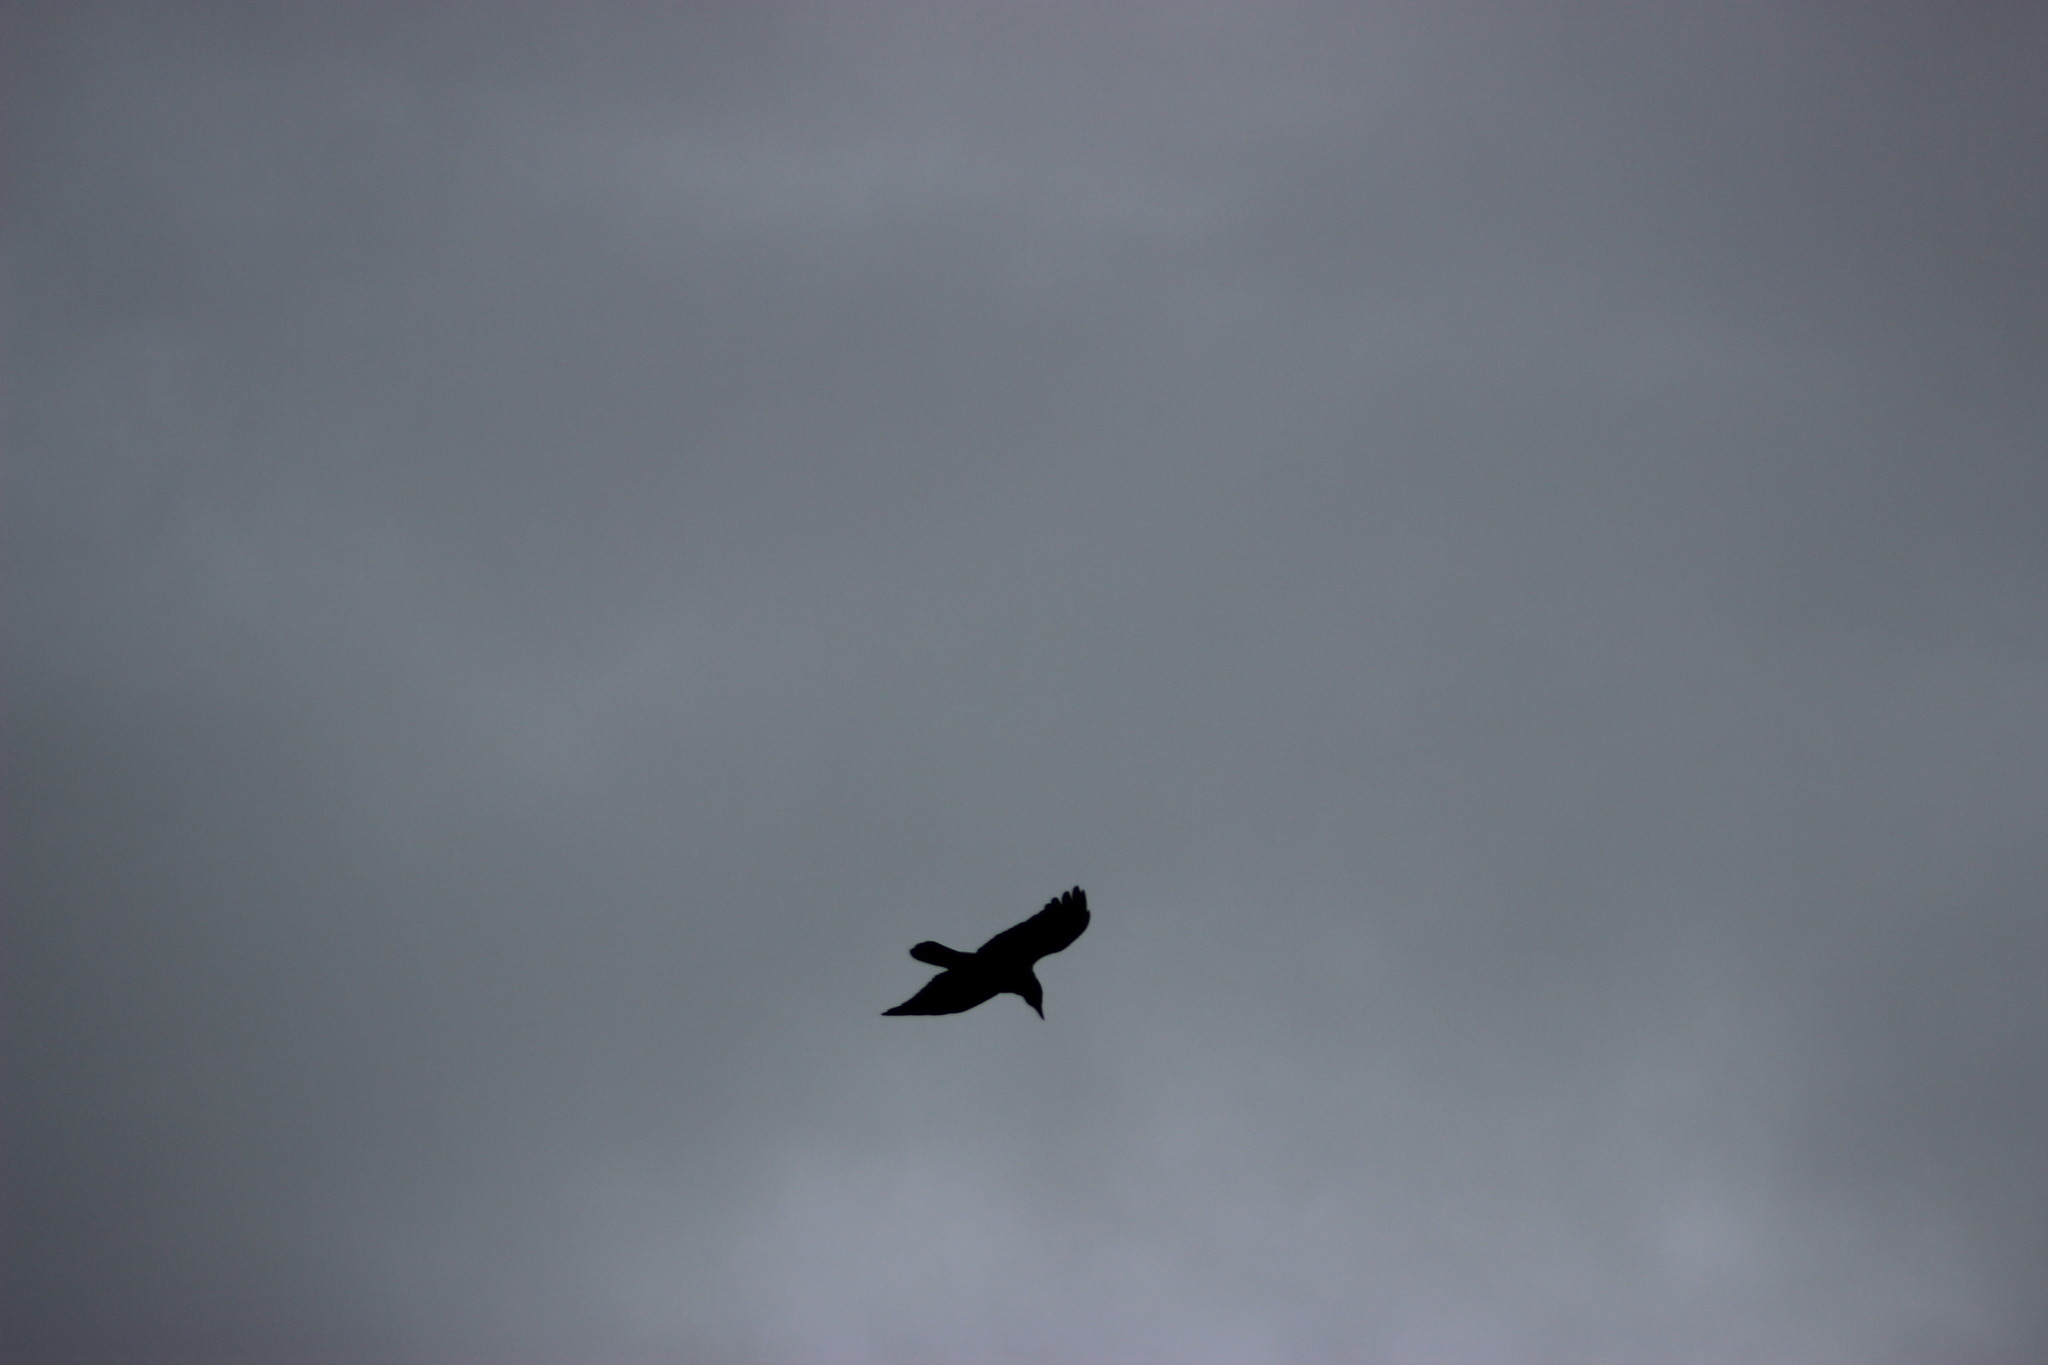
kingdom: Animalia
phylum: Chordata
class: Aves
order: Passeriformes
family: Corvidae
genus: Corvus
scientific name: Corvus corax
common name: Common raven
